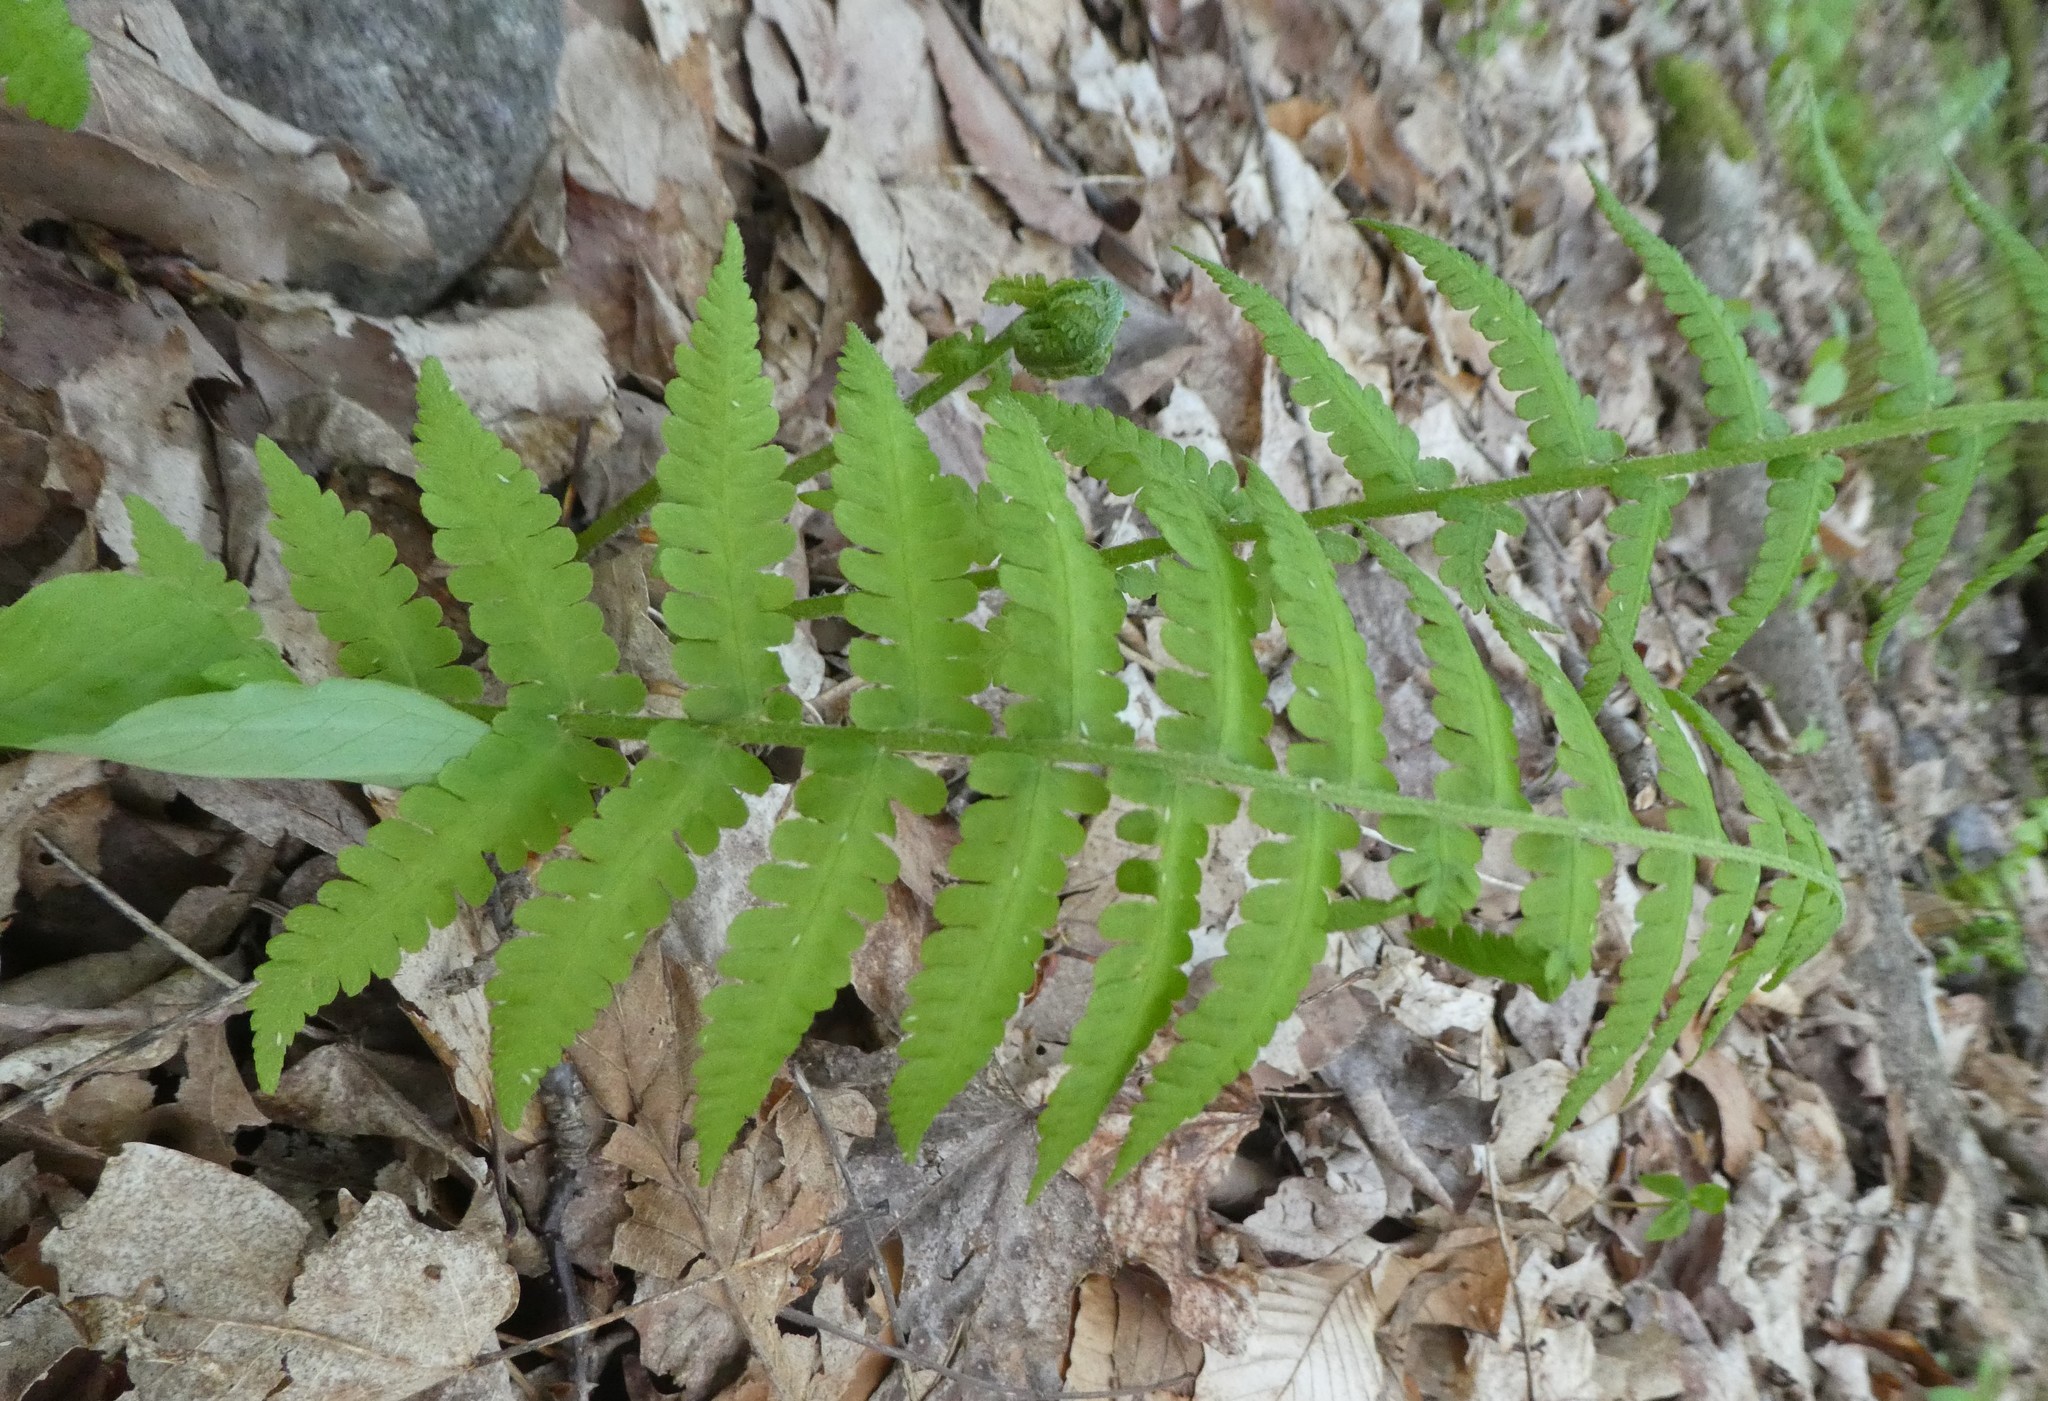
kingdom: Plantae
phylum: Tracheophyta
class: Polypodiopsida
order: Polypodiales
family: Athyriaceae
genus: Deparia
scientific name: Deparia acrostichoides
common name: Silver false spleenwort
